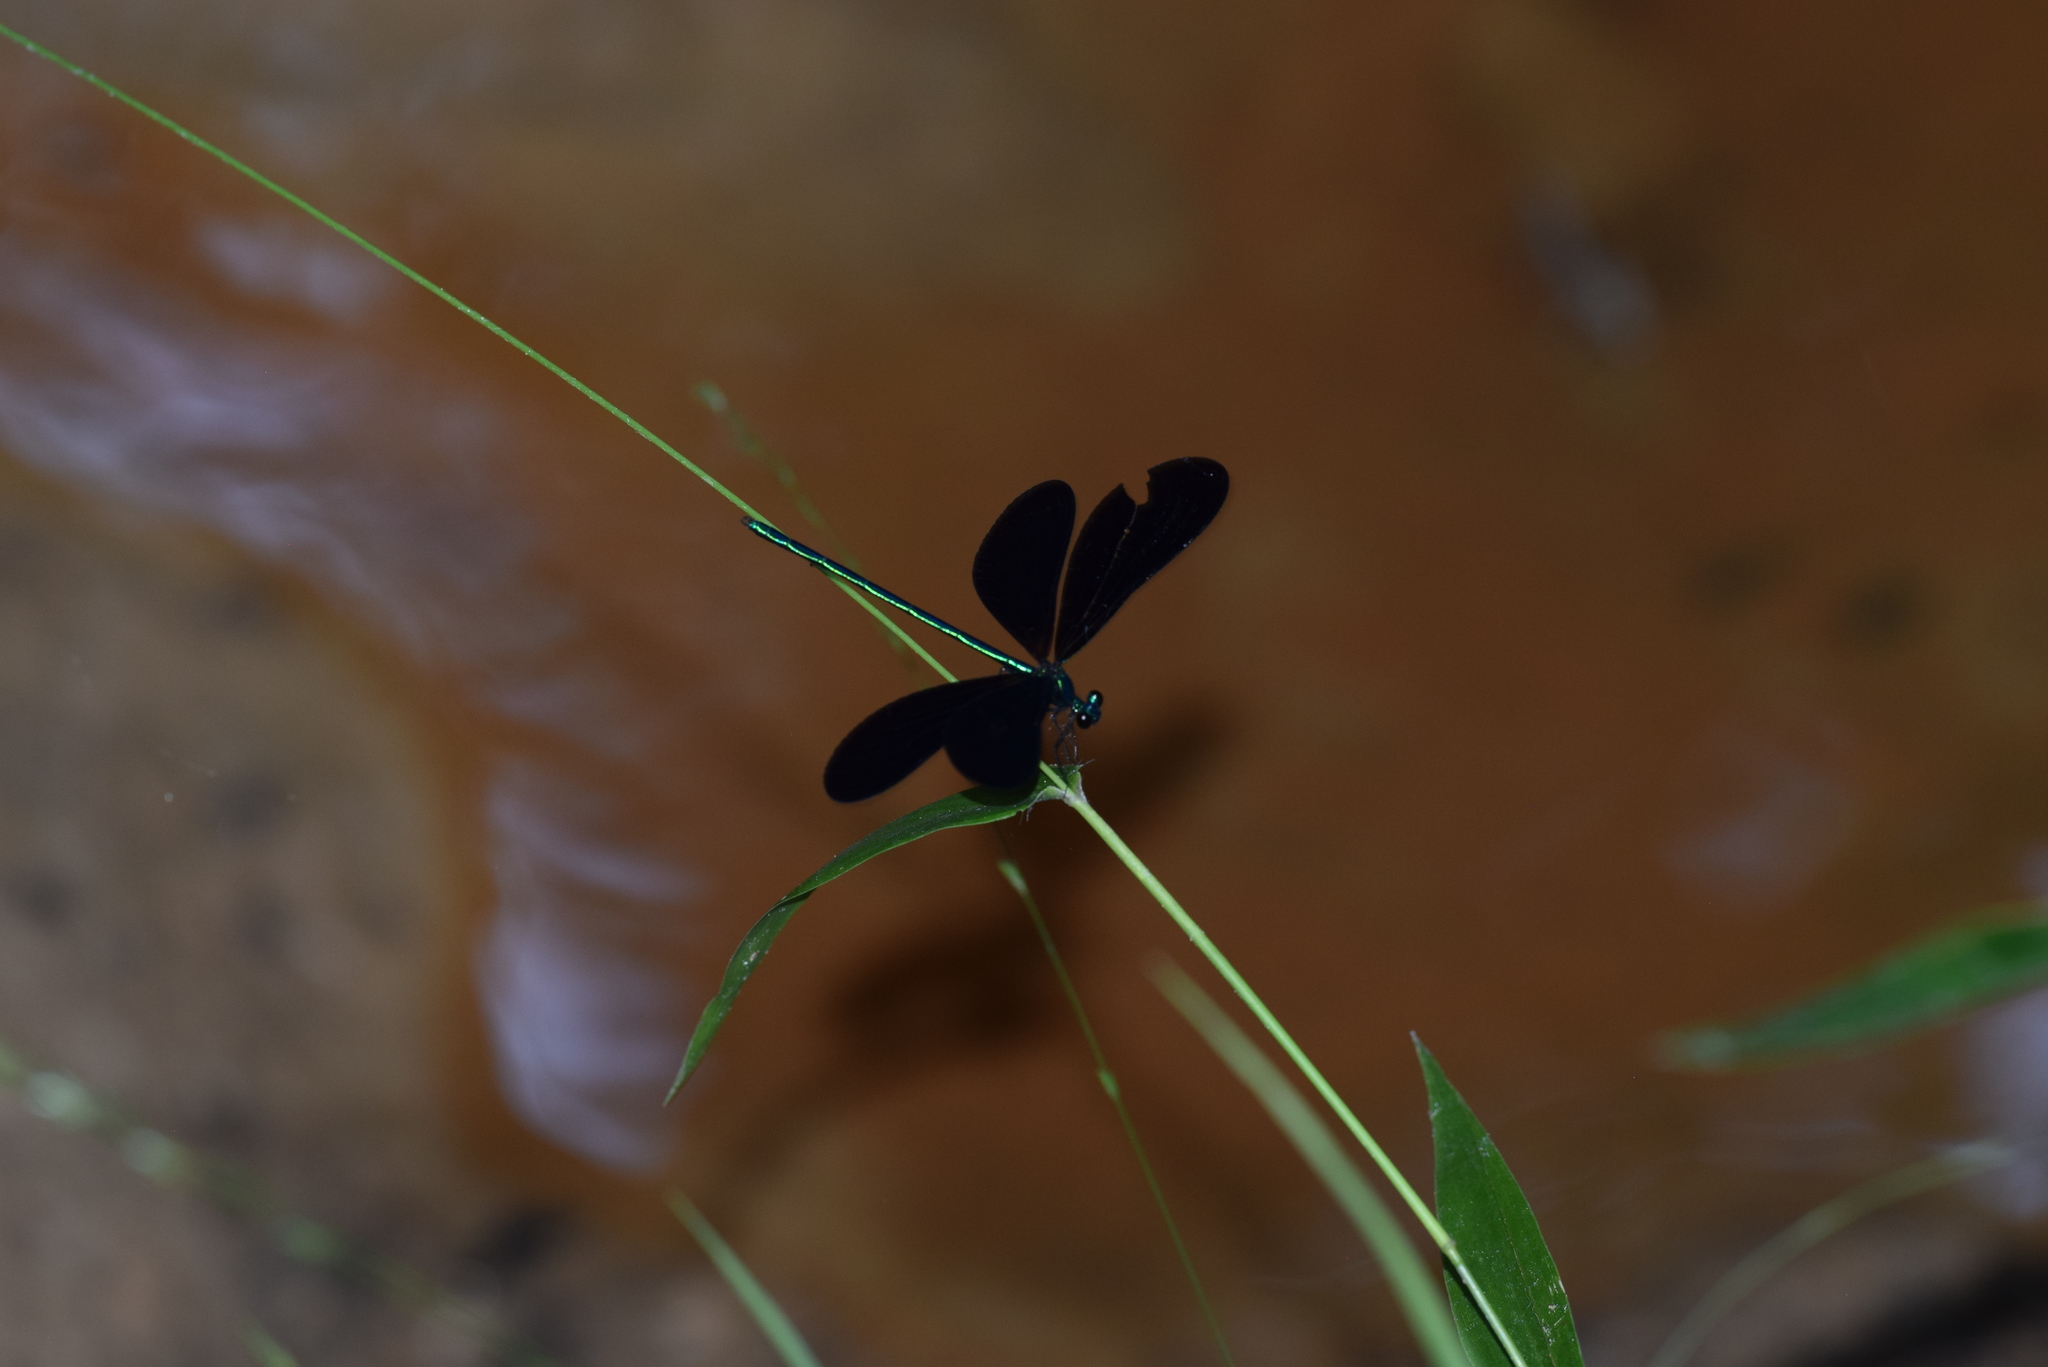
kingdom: Animalia
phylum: Arthropoda
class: Insecta
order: Odonata
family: Calopterygidae
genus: Calopteryx
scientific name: Calopteryx maculata
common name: Ebony jewelwing
